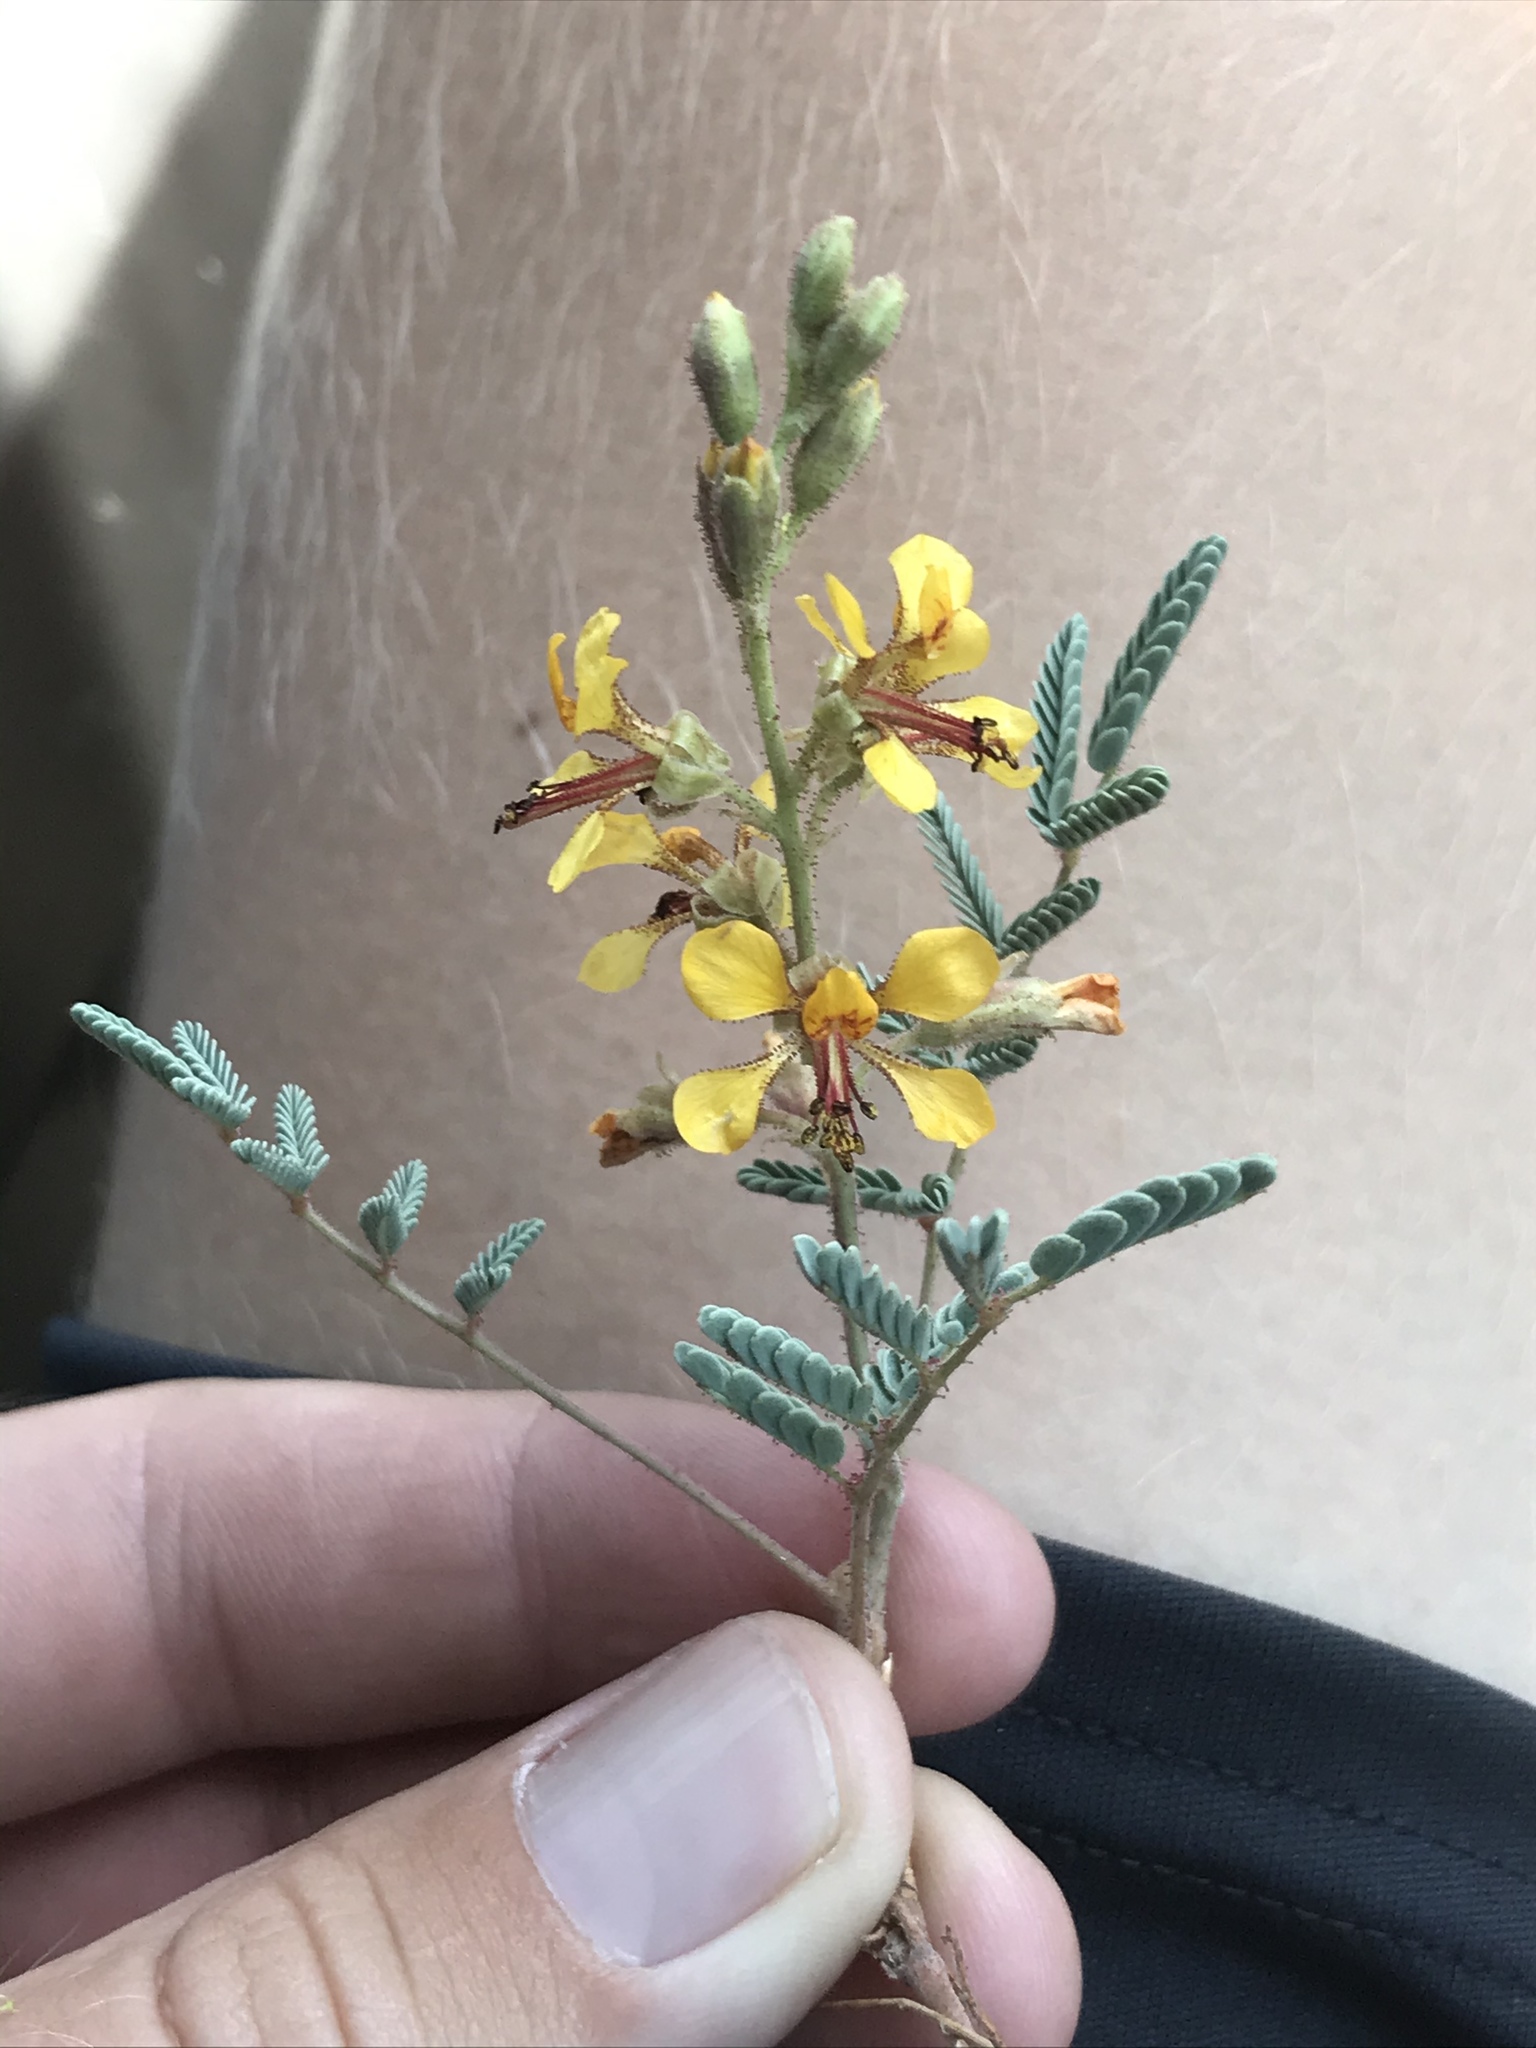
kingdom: Plantae
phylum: Tracheophyta
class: Magnoliopsida
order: Fabales
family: Fabaceae
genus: Hoffmannseggia
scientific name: Hoffmannseggia glauca
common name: Pignut
